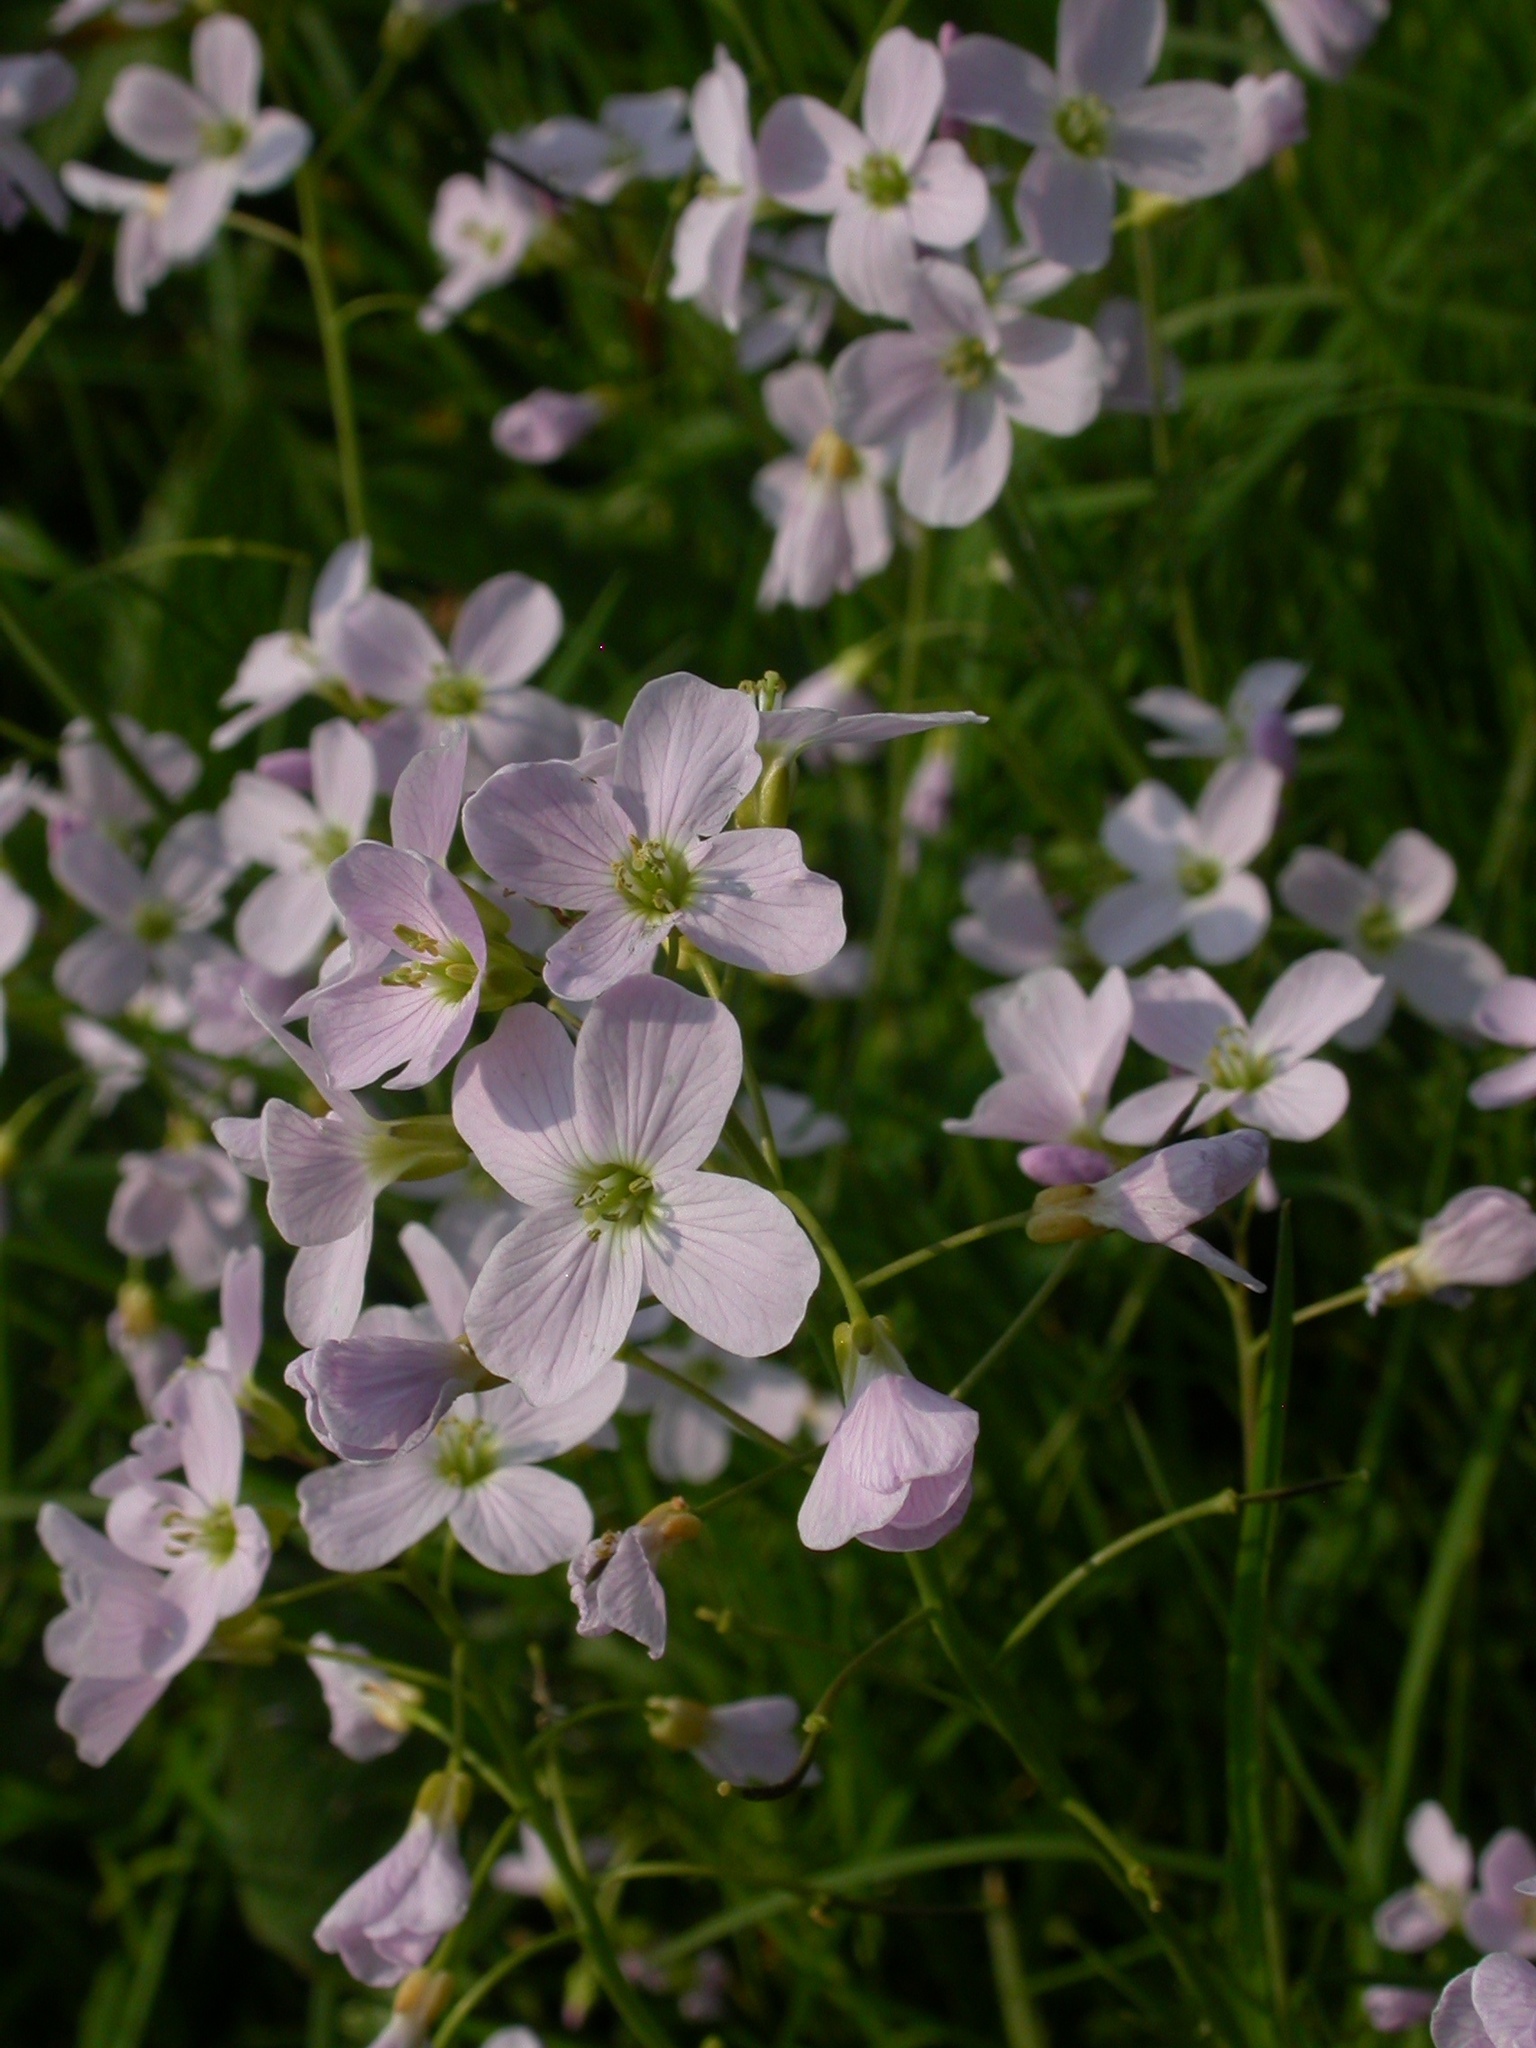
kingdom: Plantae
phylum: Tracheophyta
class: Magnoliopsida
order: Brassicales
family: Brassicaceae
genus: Cardamine
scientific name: Cardamine pratensis
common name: Cuckoo flower
